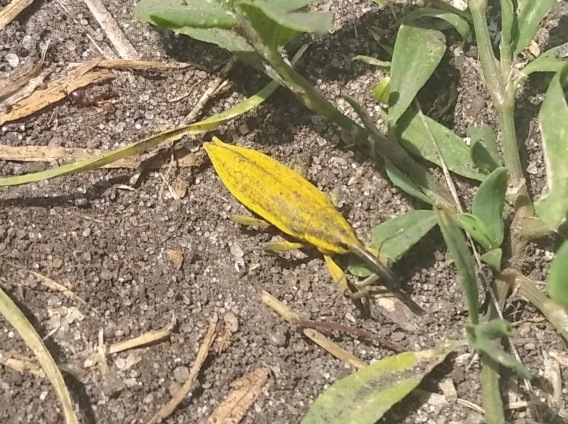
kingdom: Animalia
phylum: Arthropoda
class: Insecta
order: Coleoptera
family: Curculionidae
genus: Lixus
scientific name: Lixus iridis
